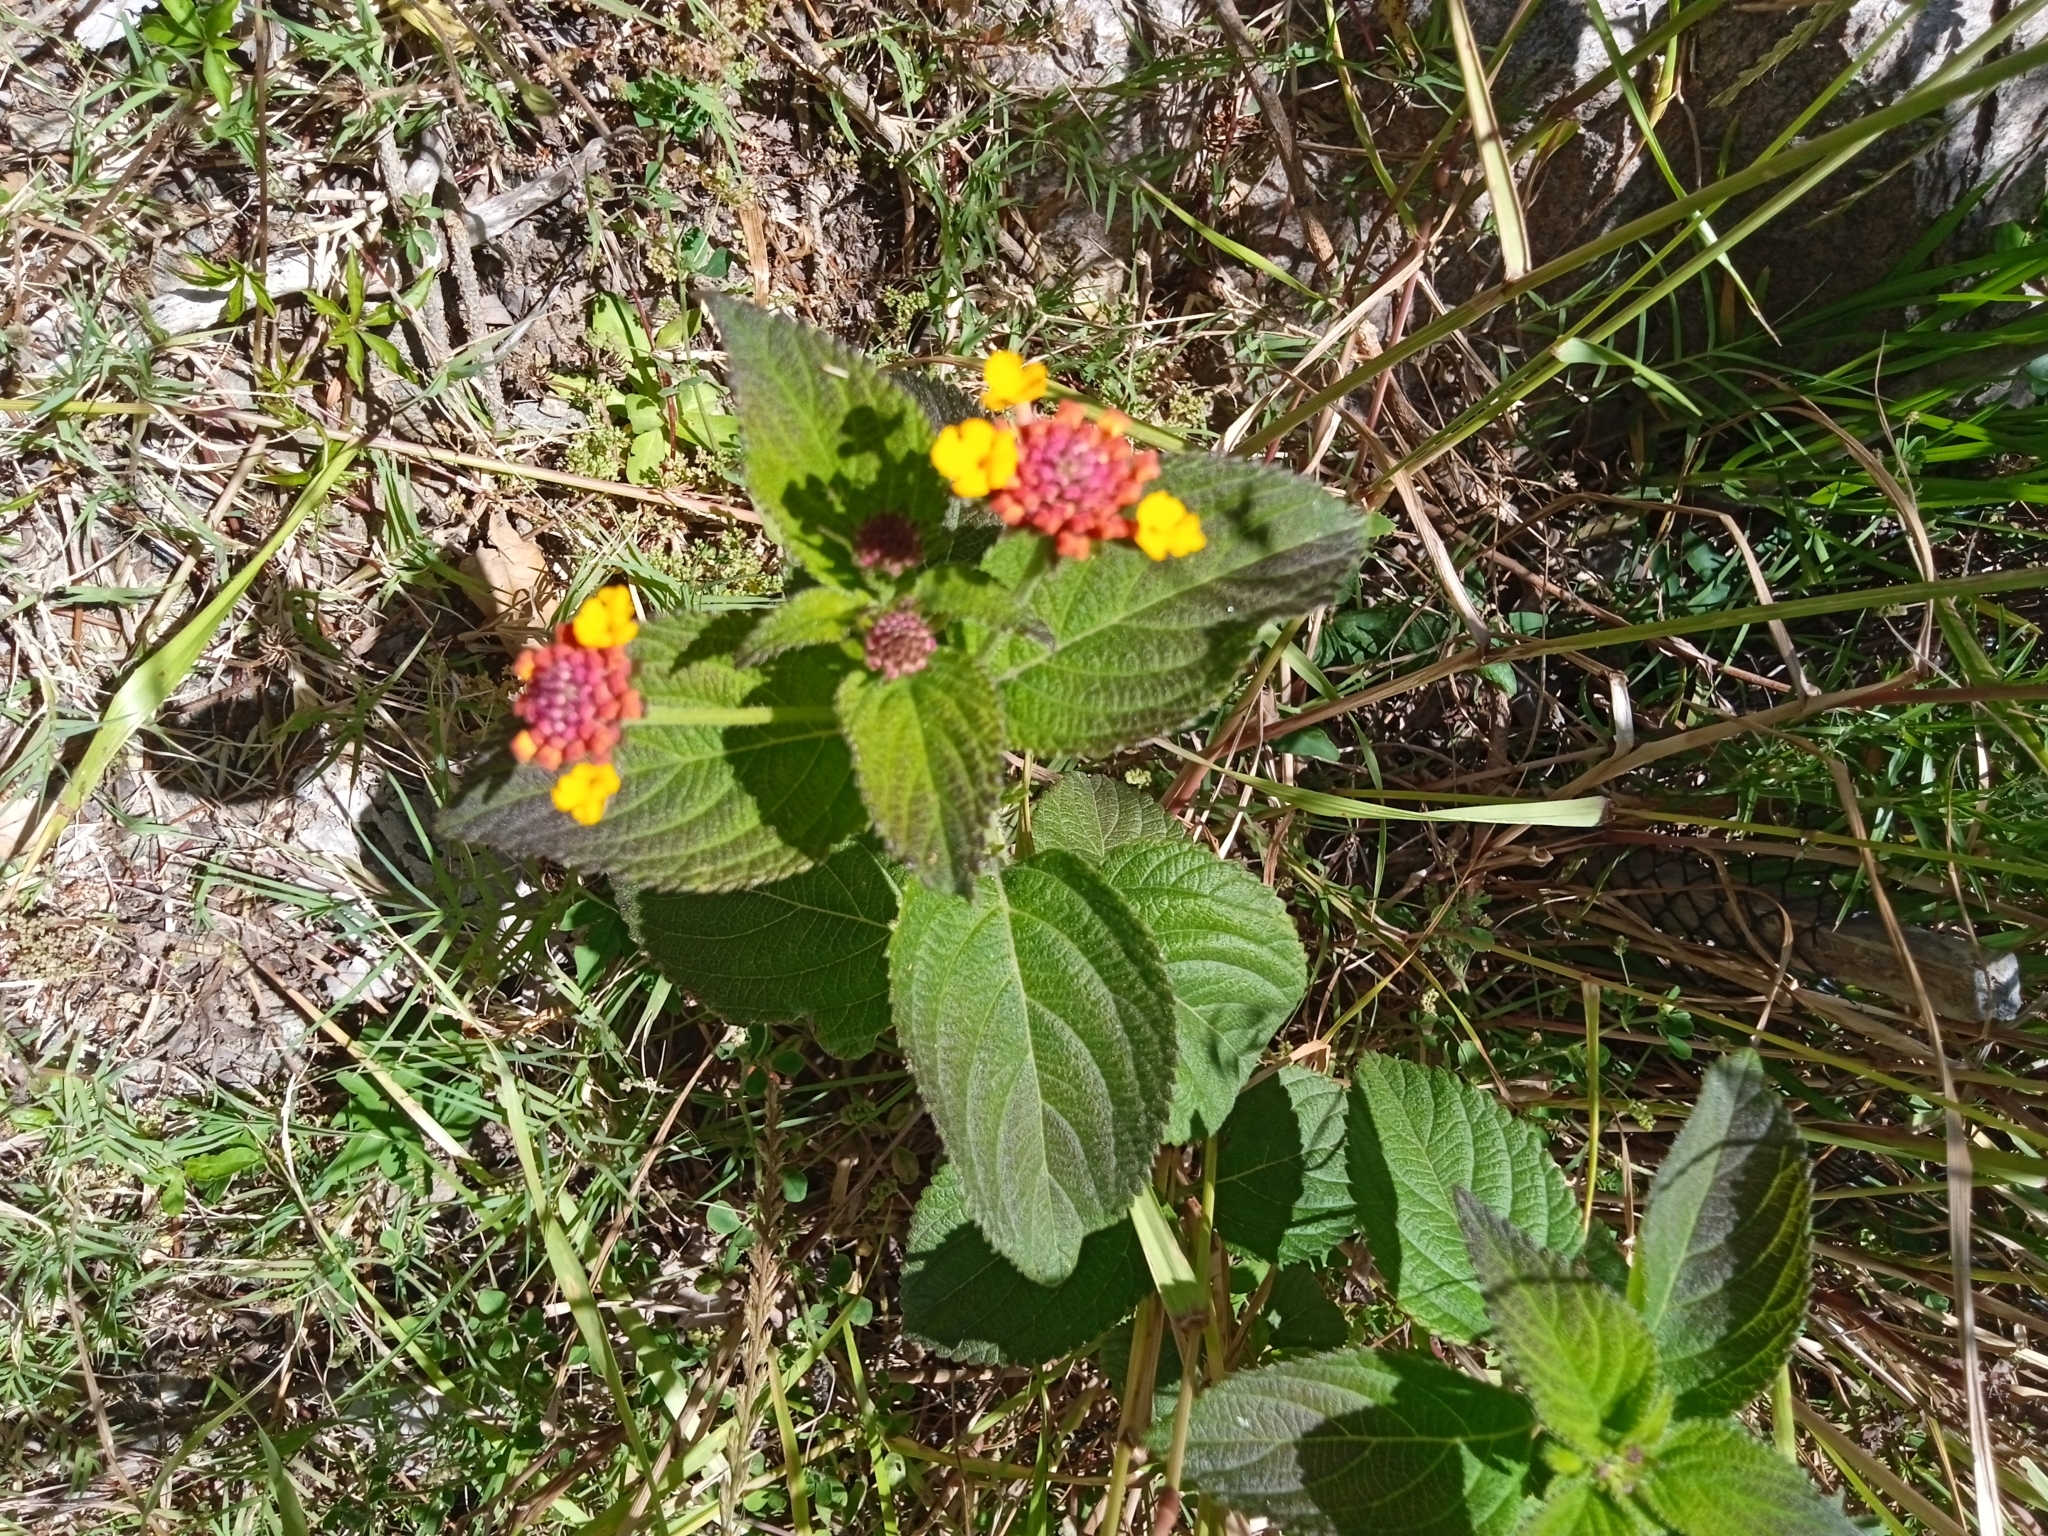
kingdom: Plantae
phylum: Tracheophyta
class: Magnoliopsida
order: Lamiales
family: Verbenaceae
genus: Lantana
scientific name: Lantana camara
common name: Lantana
